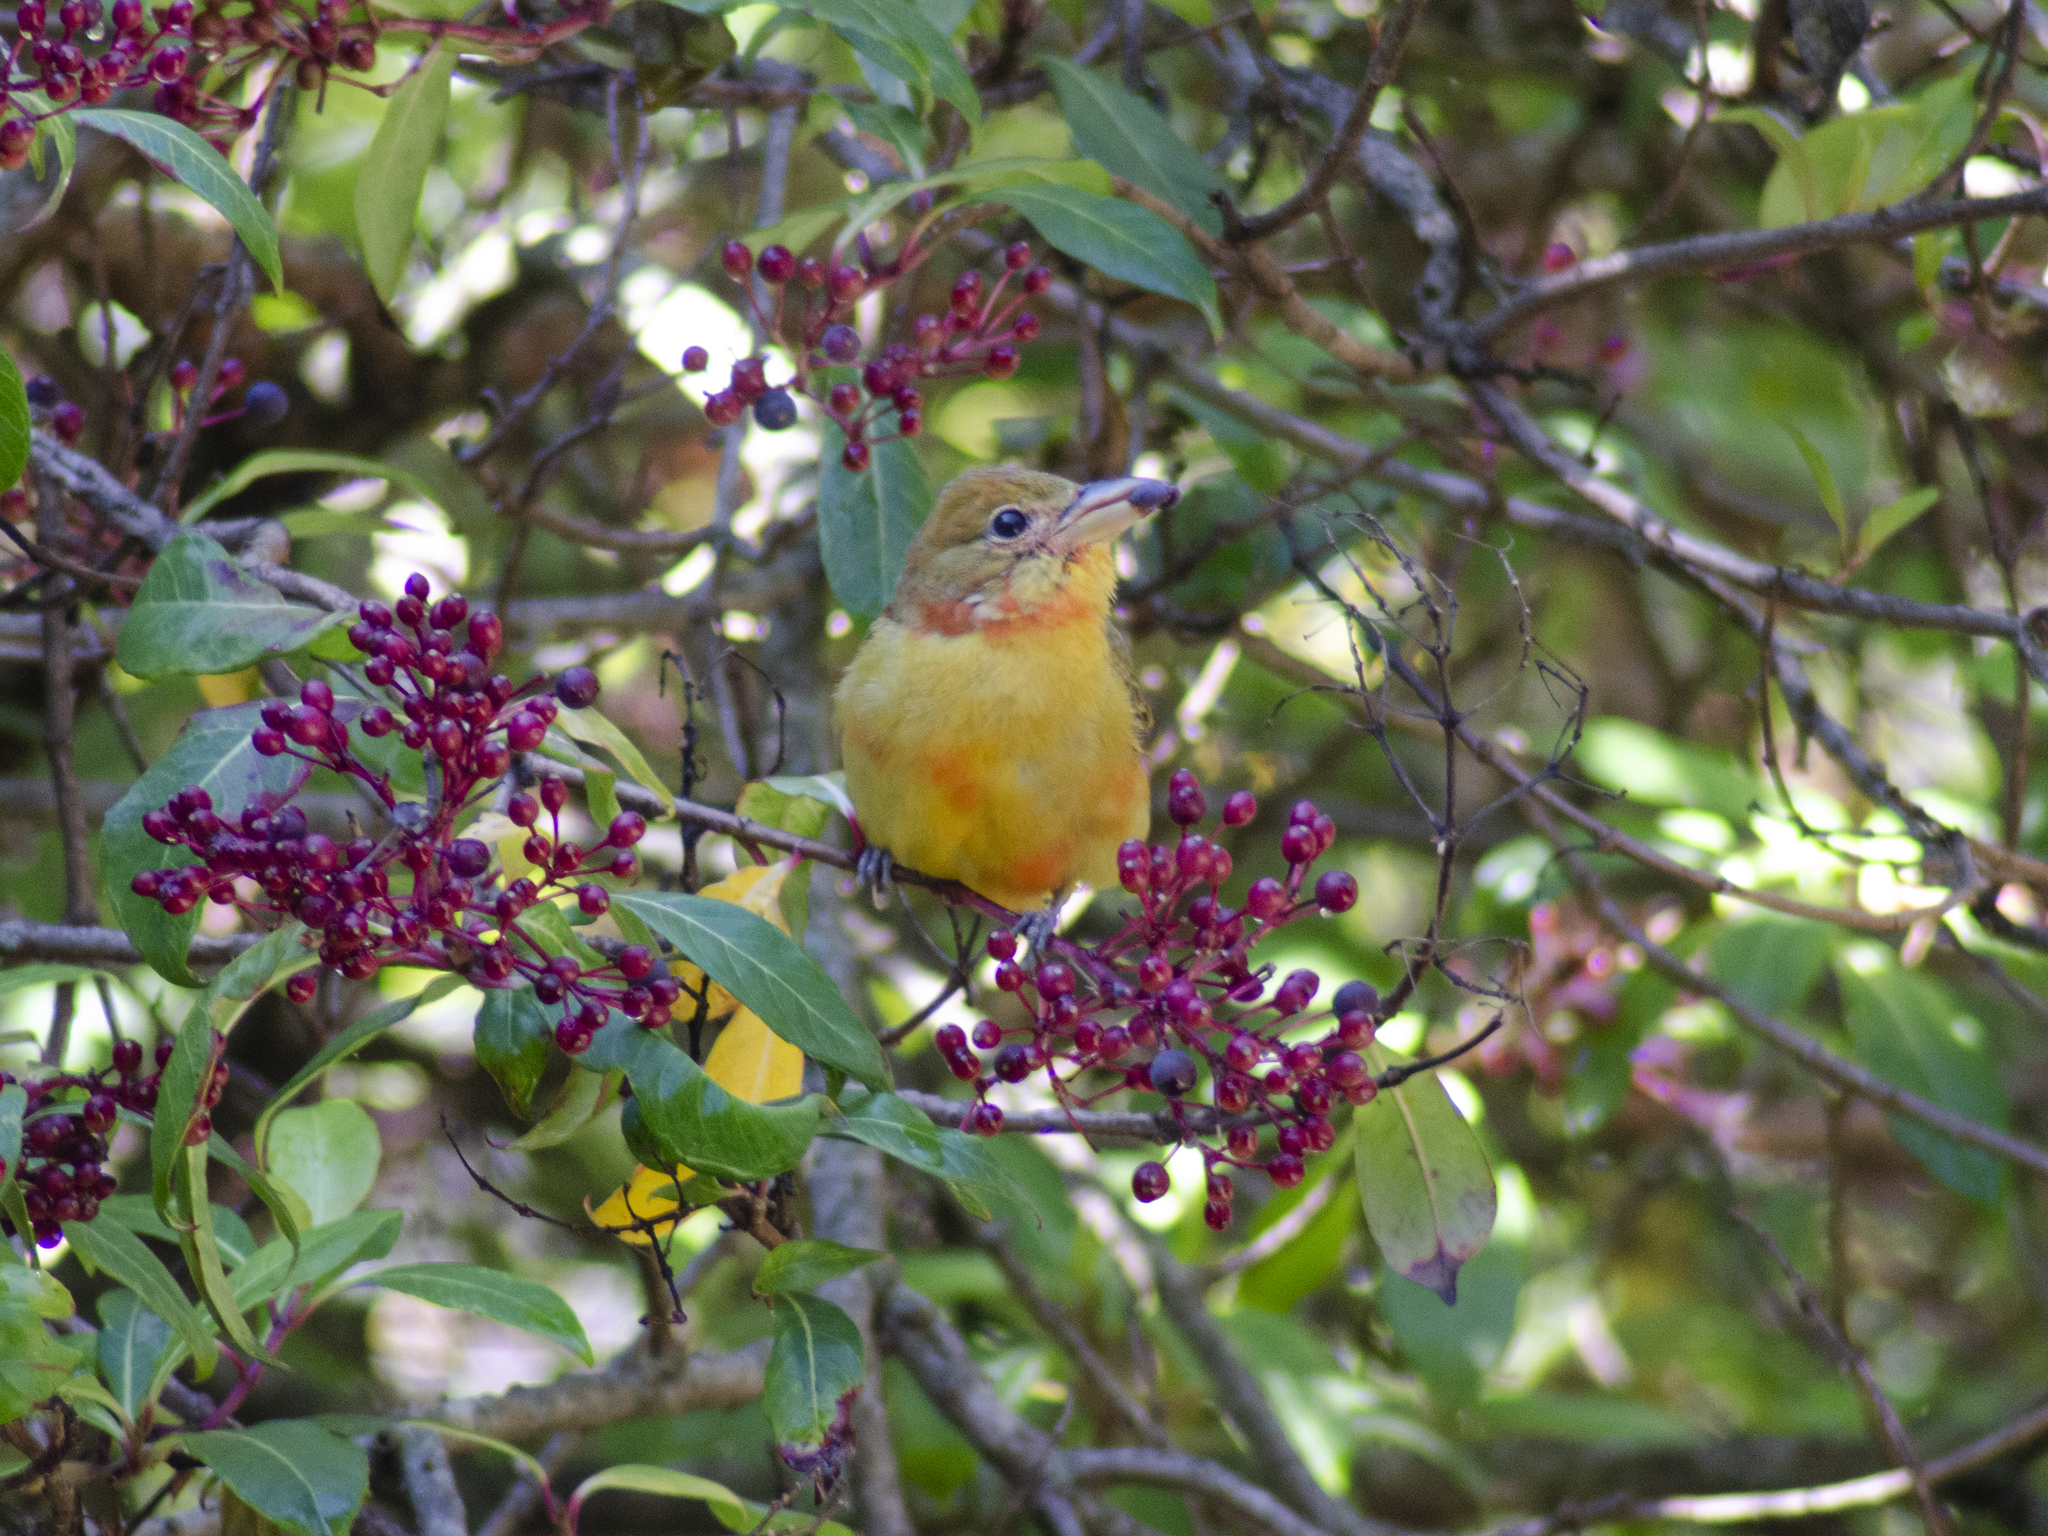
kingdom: Animalia
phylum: Chordata
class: Aves
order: Passeriformes
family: Cardinalidae
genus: Piranga
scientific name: Piranga rubra
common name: Summer tanager
